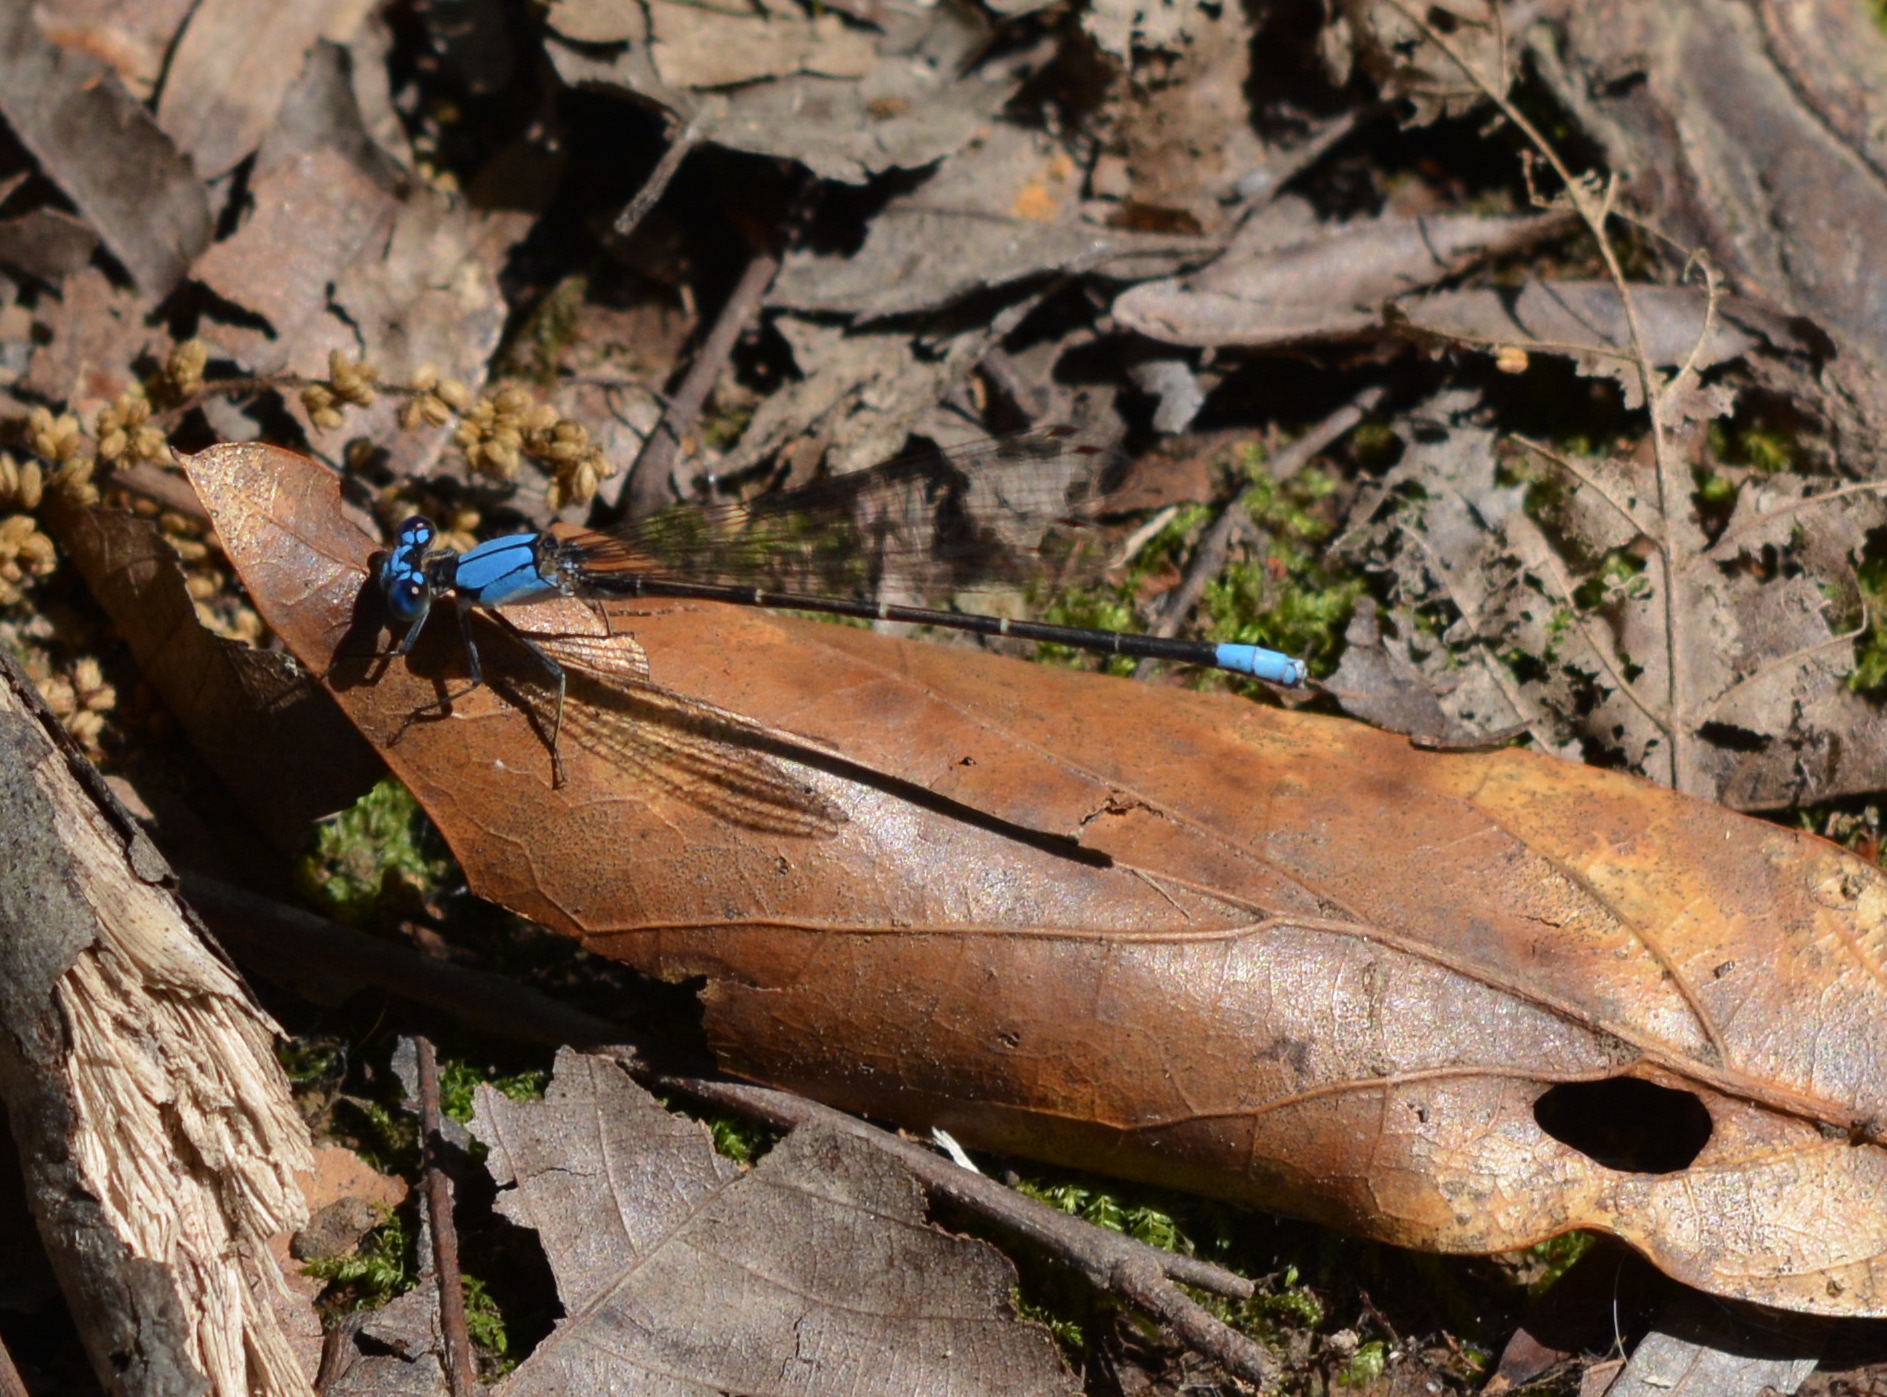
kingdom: Animalia
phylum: Arthropoda
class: Insecta
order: Odonata
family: Coenagrionidae
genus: Argia
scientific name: Argia apicalis
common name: Blue-fronted dancer
